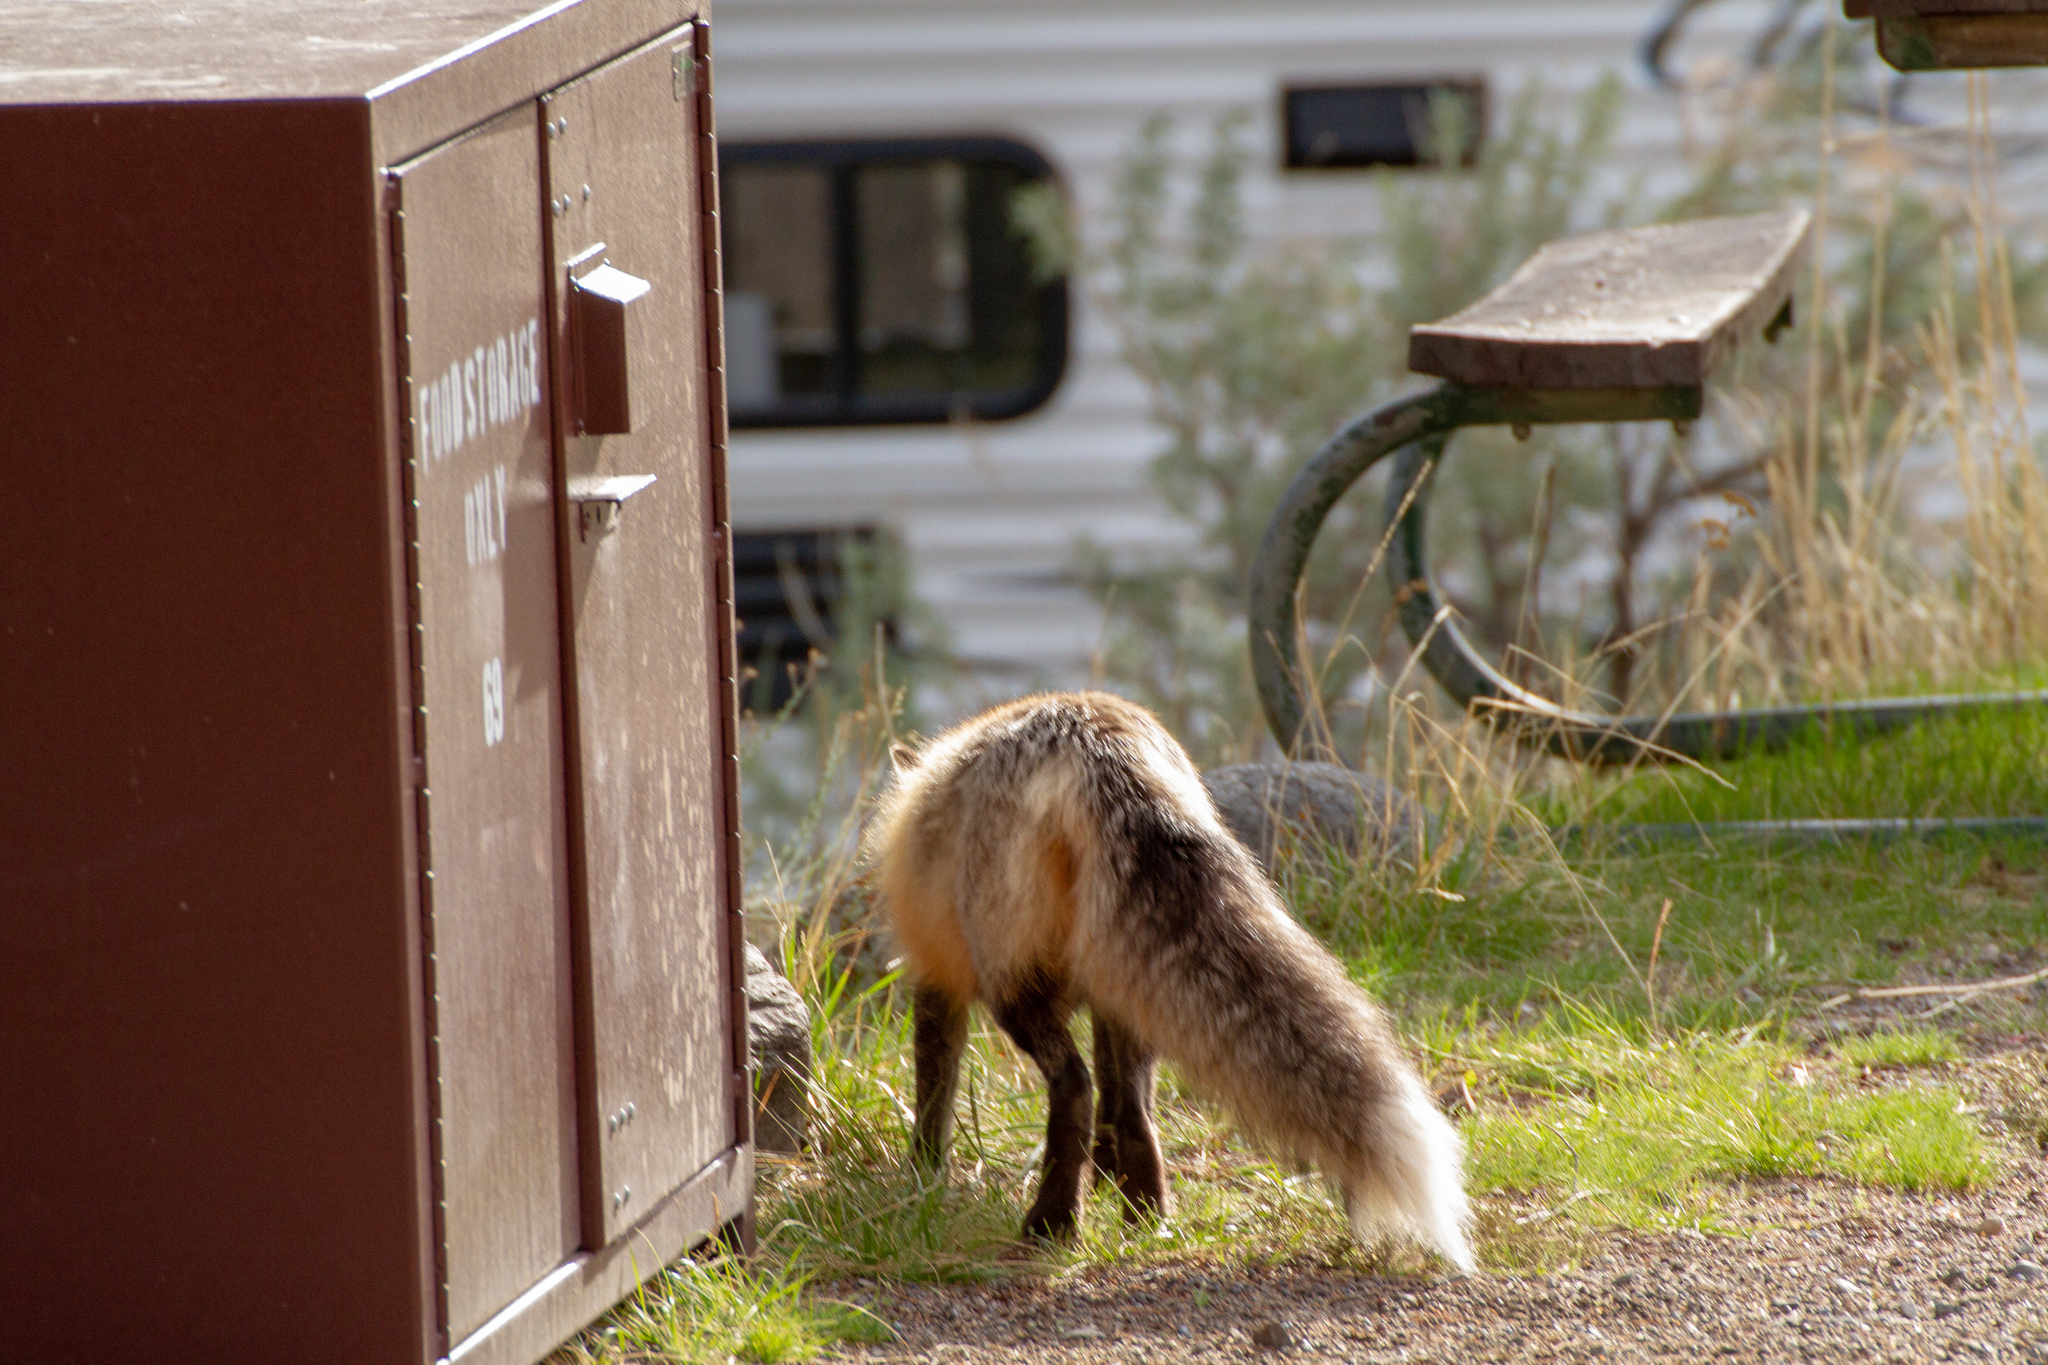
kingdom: Animalia
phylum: Chordata
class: Mammalia
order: Carnivora
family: Canidae
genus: Vulpes
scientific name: Vulpes vulpes
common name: Red fox
